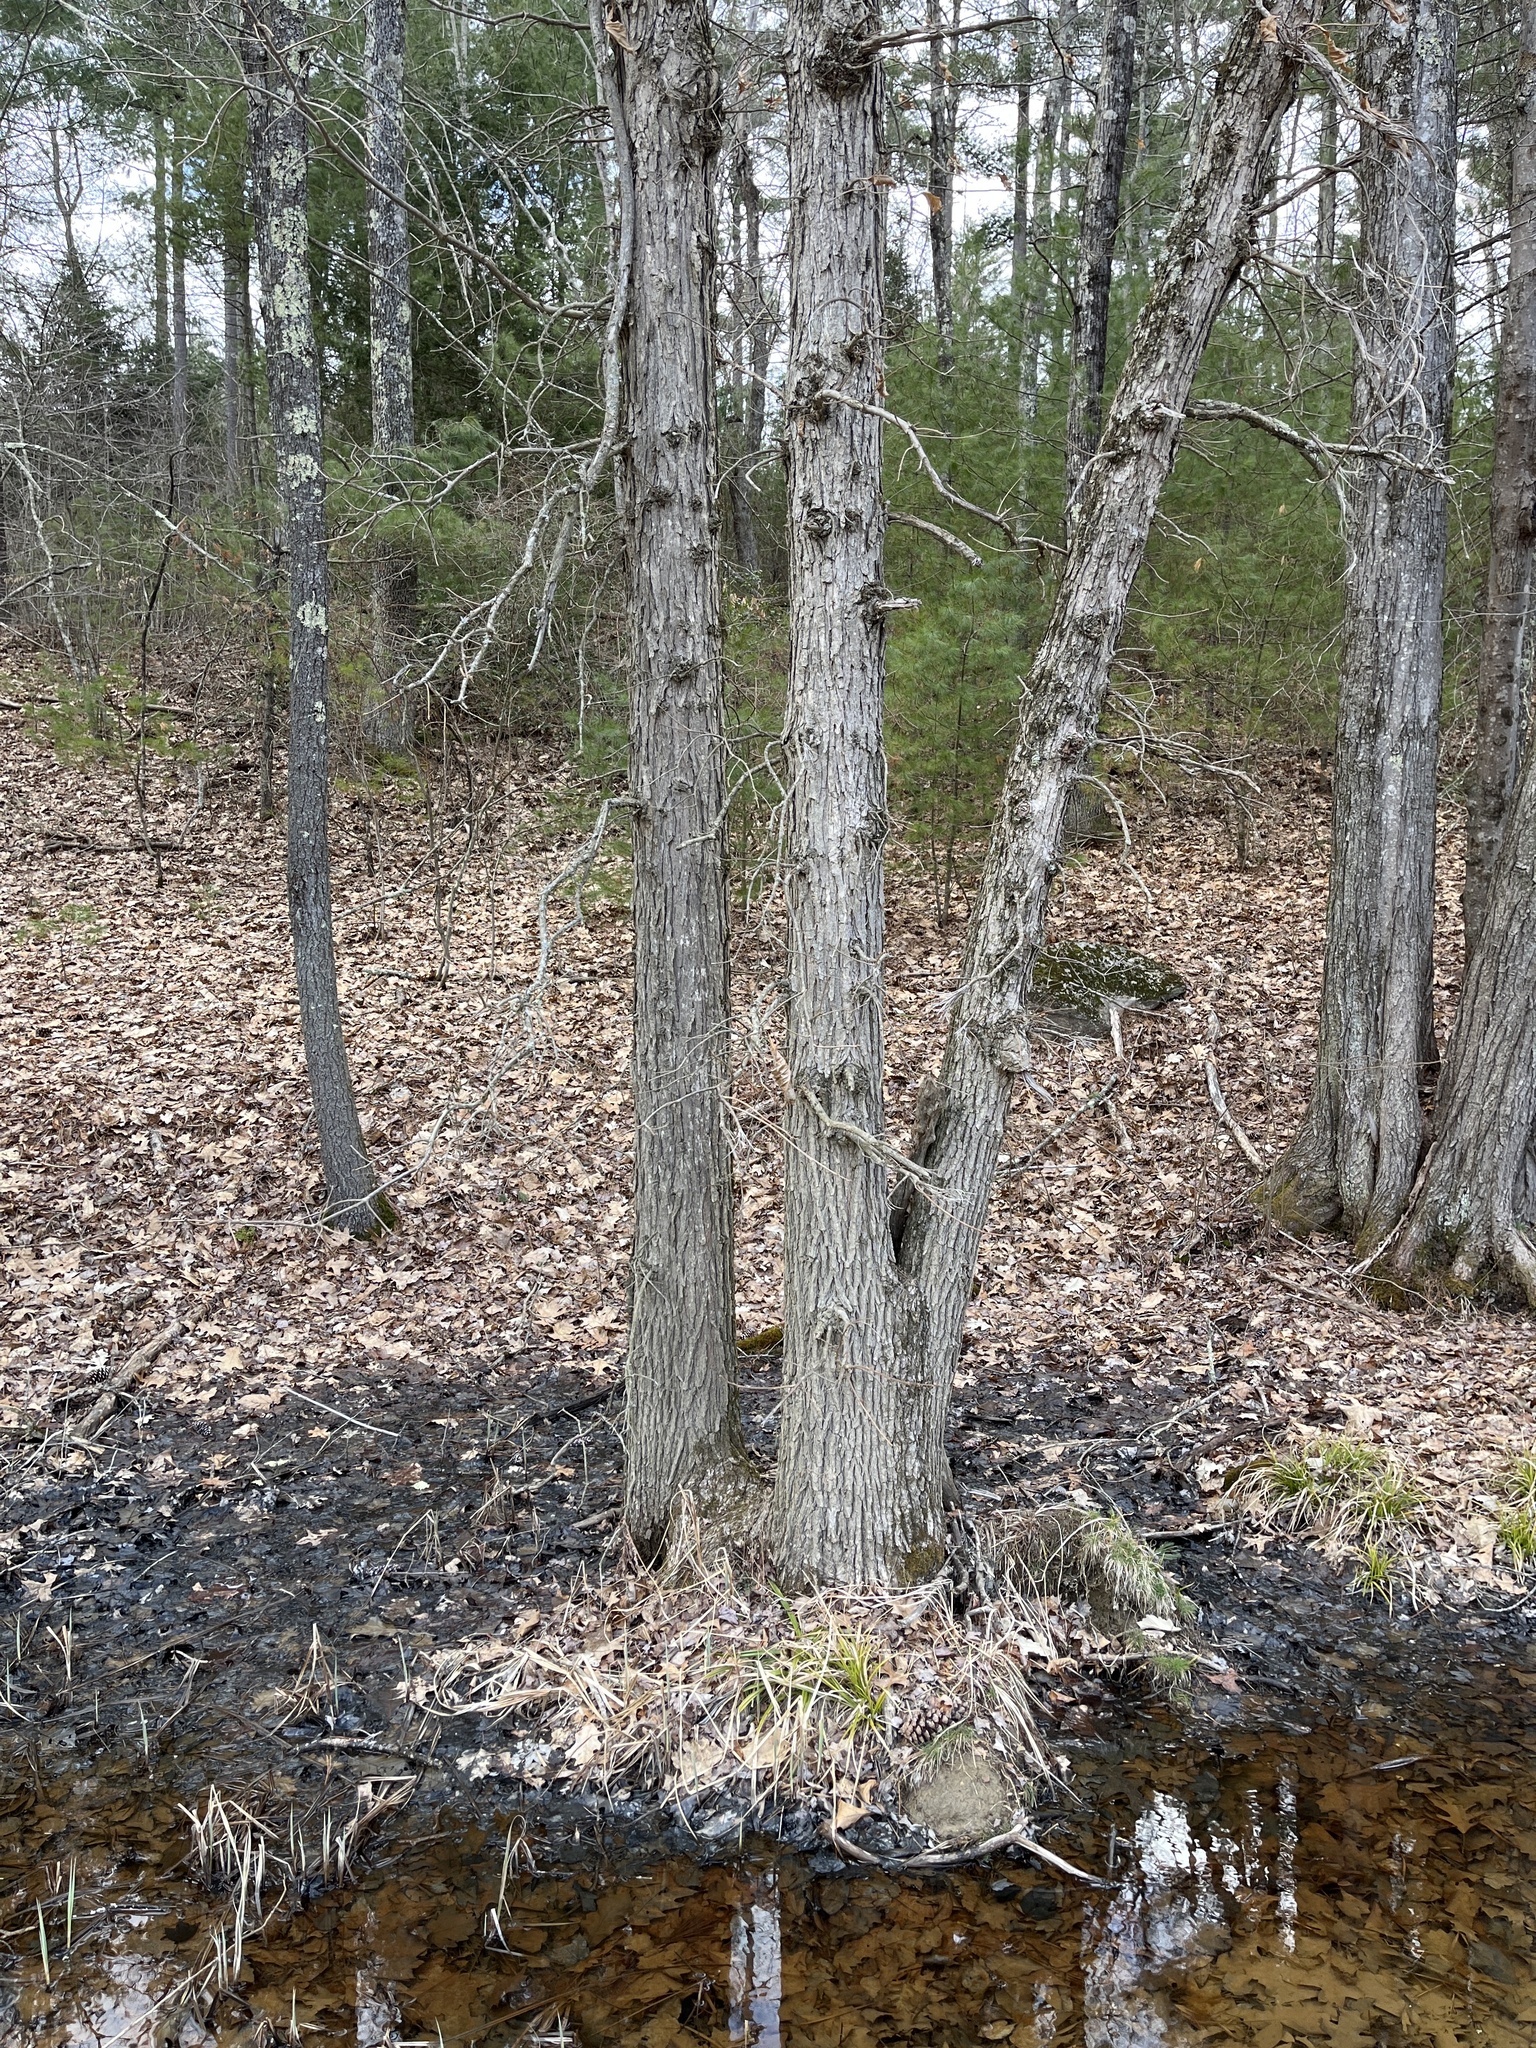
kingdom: Plantae
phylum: Tracheophyta
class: Magnoliopsida
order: Fagales
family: Fagaceae
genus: Quercus
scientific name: Quercus bicolor
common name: Swamp white oak
